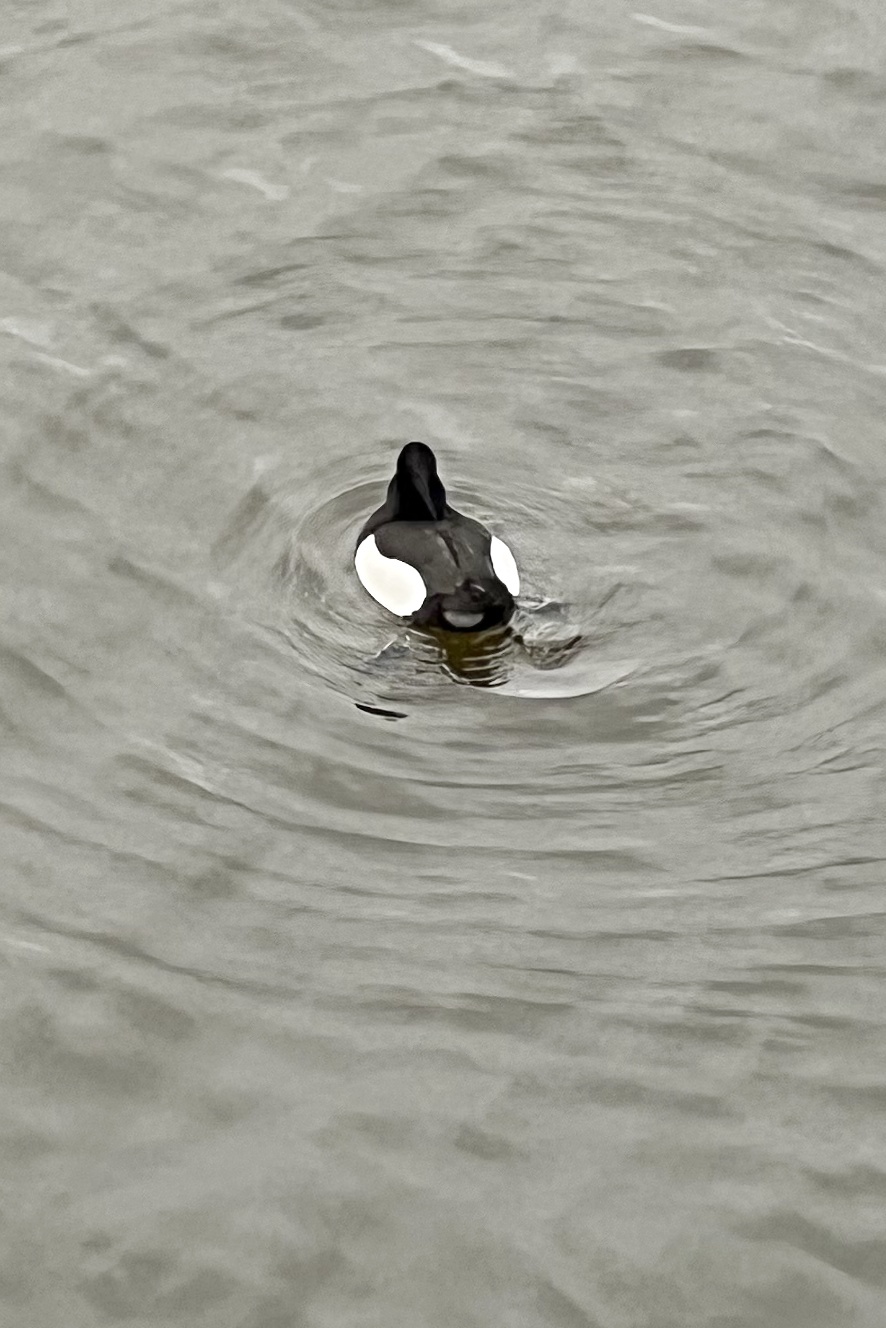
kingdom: Animalia
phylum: Chordata
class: Aves
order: Anseriformes
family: Anatidae
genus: Aythya
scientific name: Aythya fuligula
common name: Tufted duck
